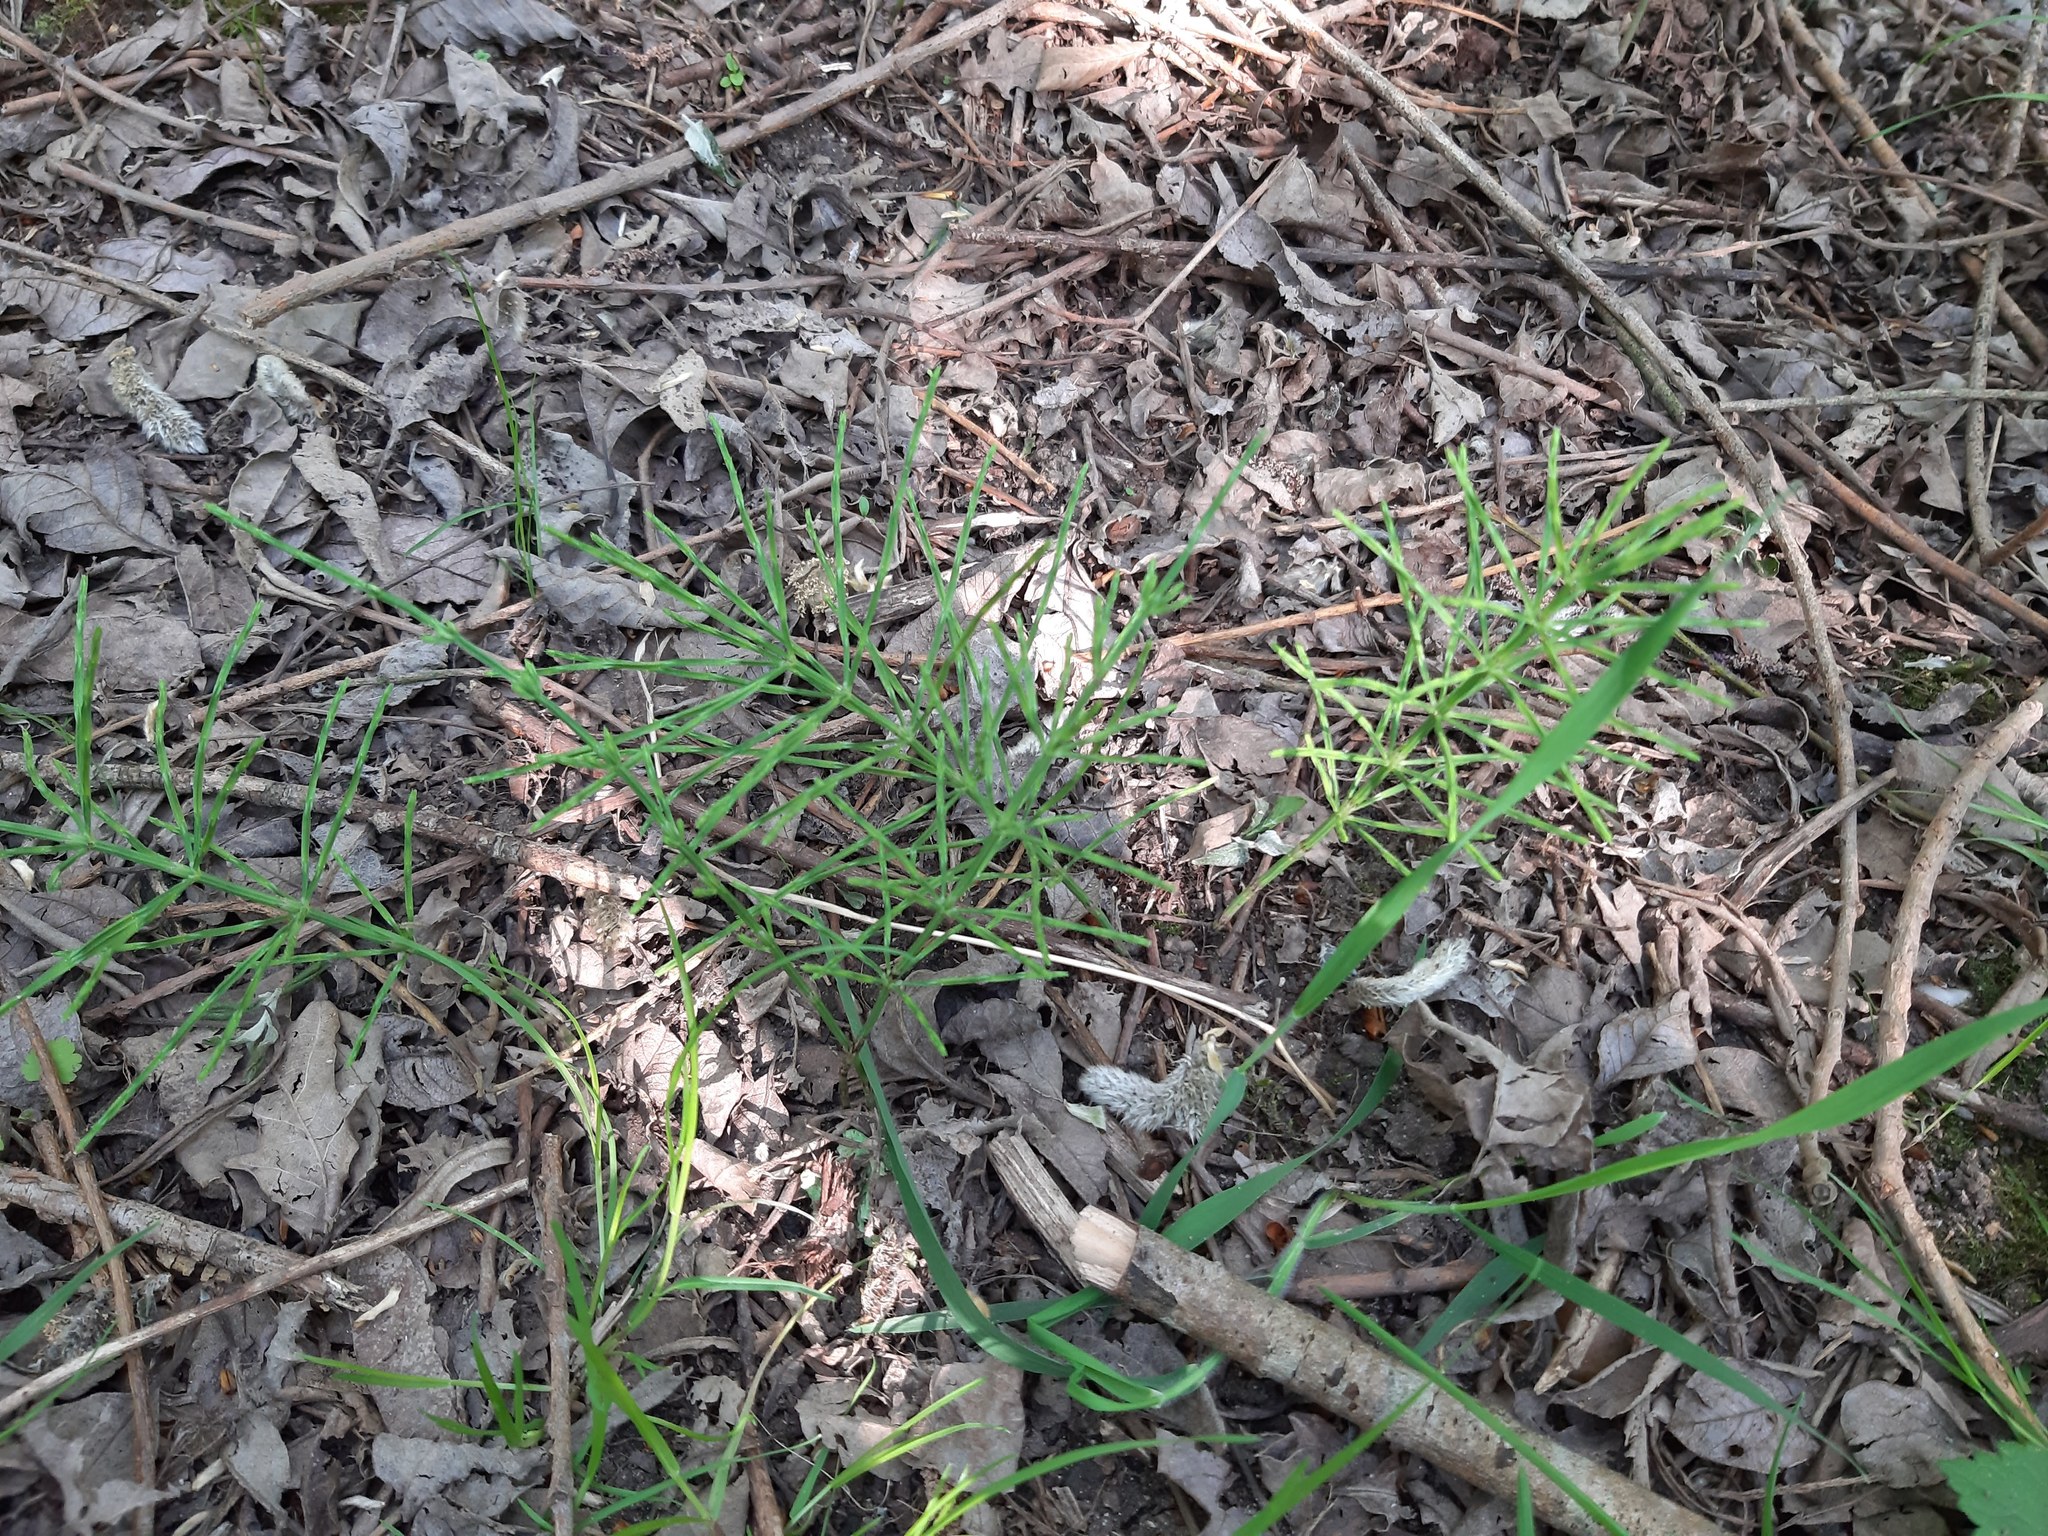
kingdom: Plantae
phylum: Tracheophyta
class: Polypodiopsida
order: Equisetales
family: Equisetaceae
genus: Equisetum
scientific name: Equisetum arvense
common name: Field horsetail
